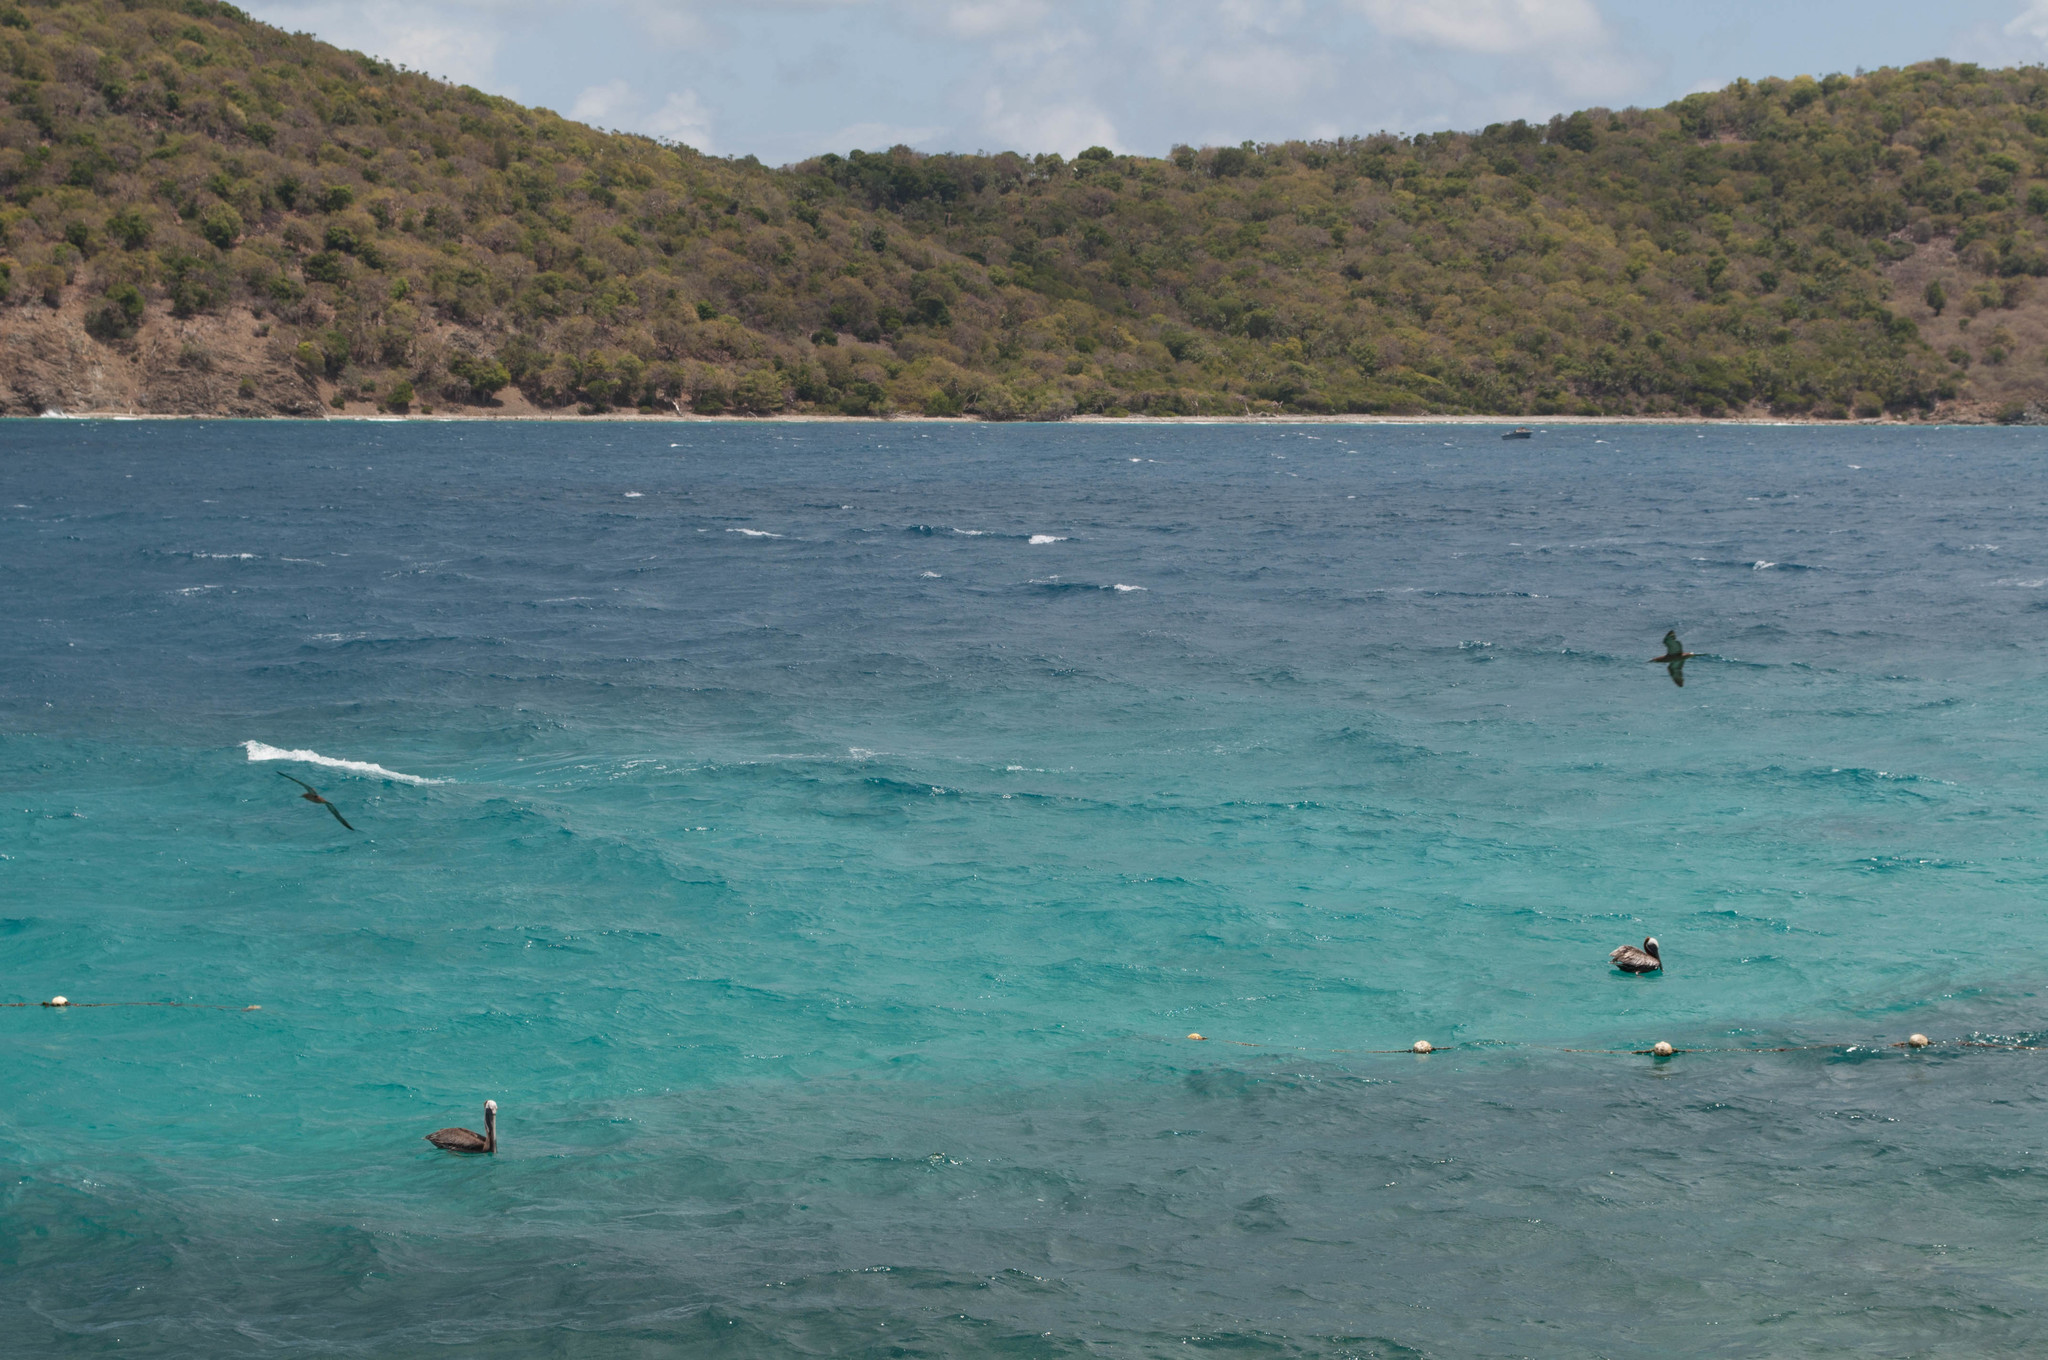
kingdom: Animalia
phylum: Chordata
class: Aves
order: Pelecaniformes
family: Pelecanidae
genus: Pelecanus
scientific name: Pelecanus occidentalis
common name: Brown pelican
